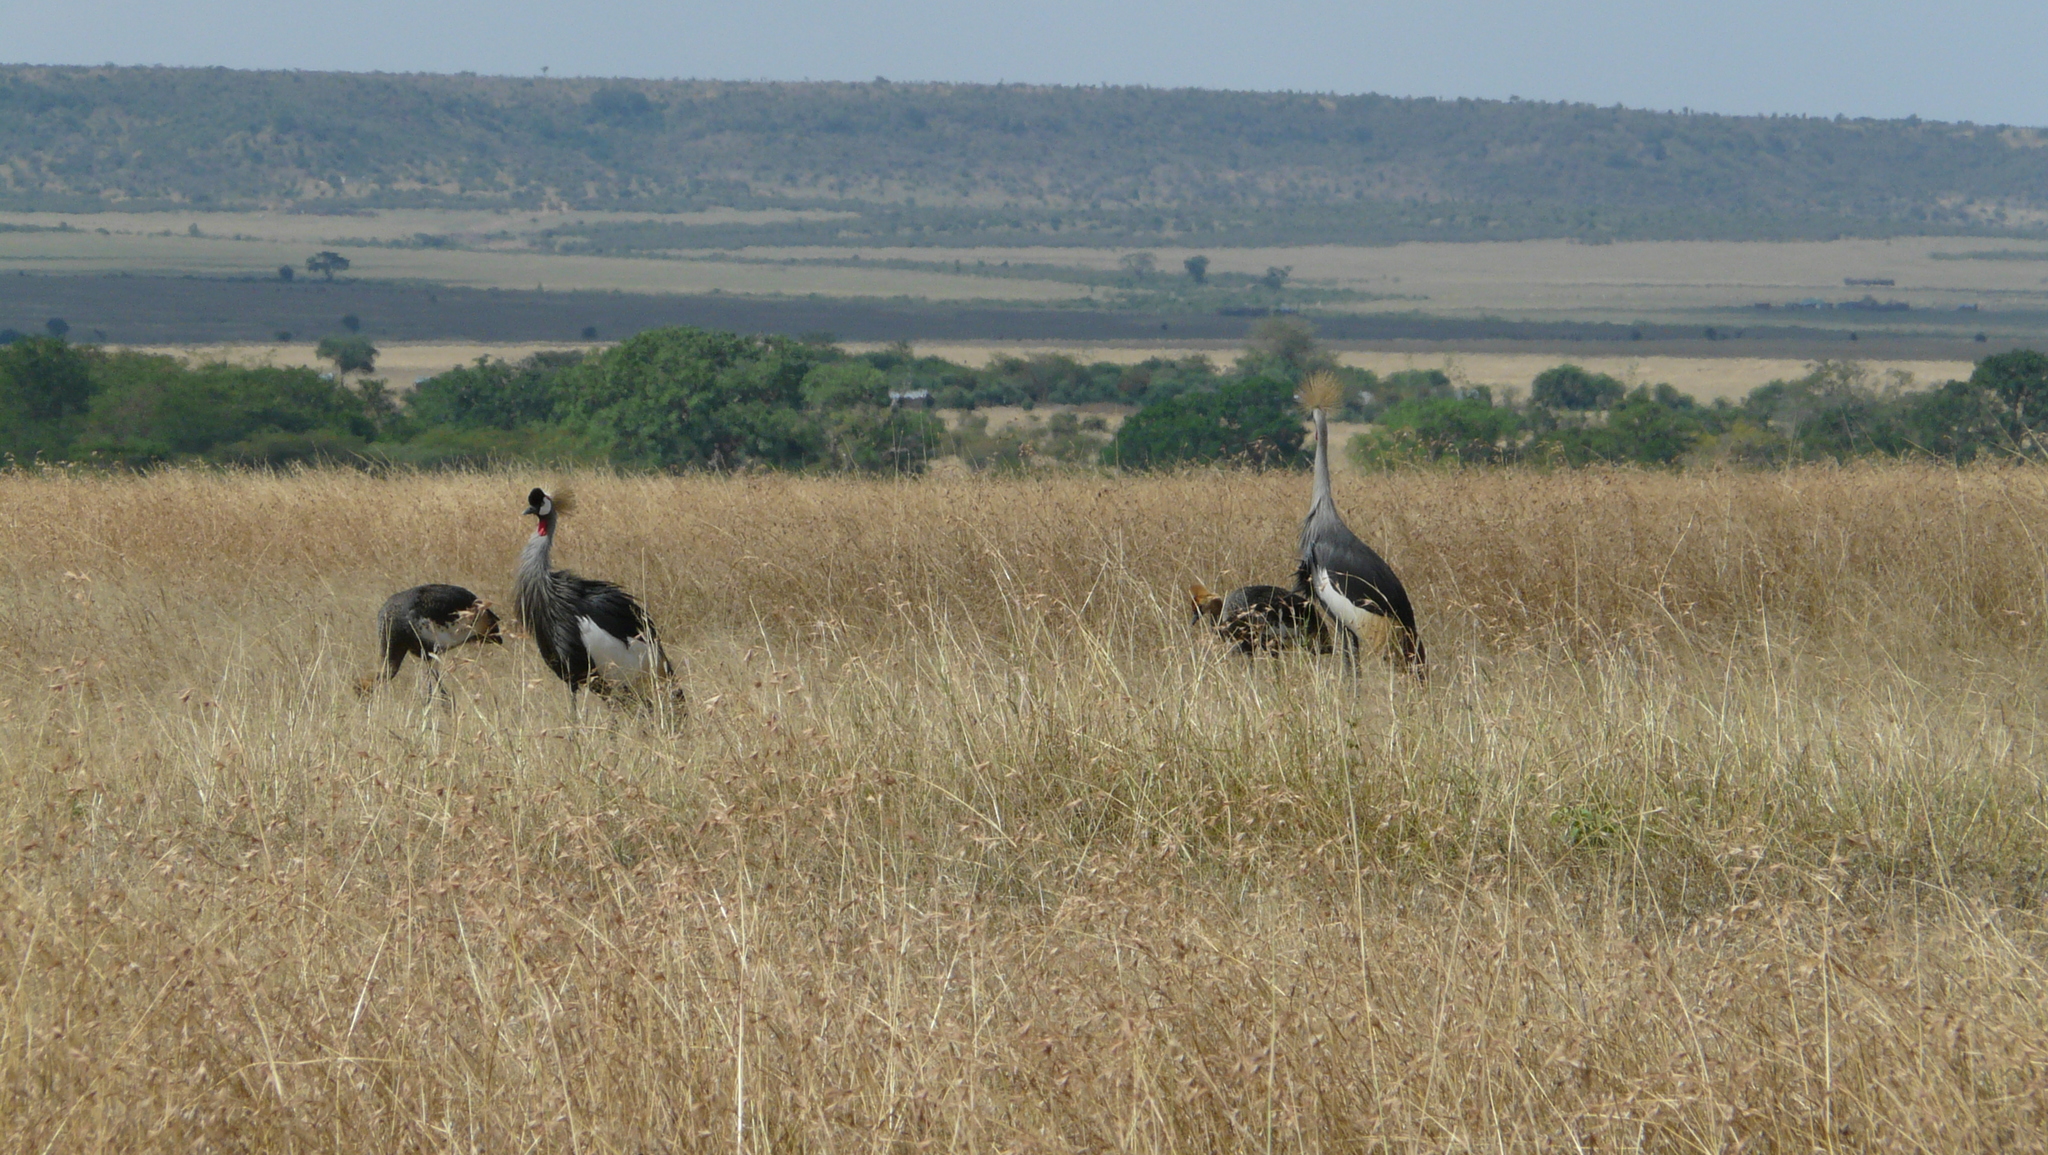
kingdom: Animalia
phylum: Chordata
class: Aves
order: Gruiformes
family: Gruidae
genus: Balearica
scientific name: Balearica regulorum
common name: Grey crowned crane
